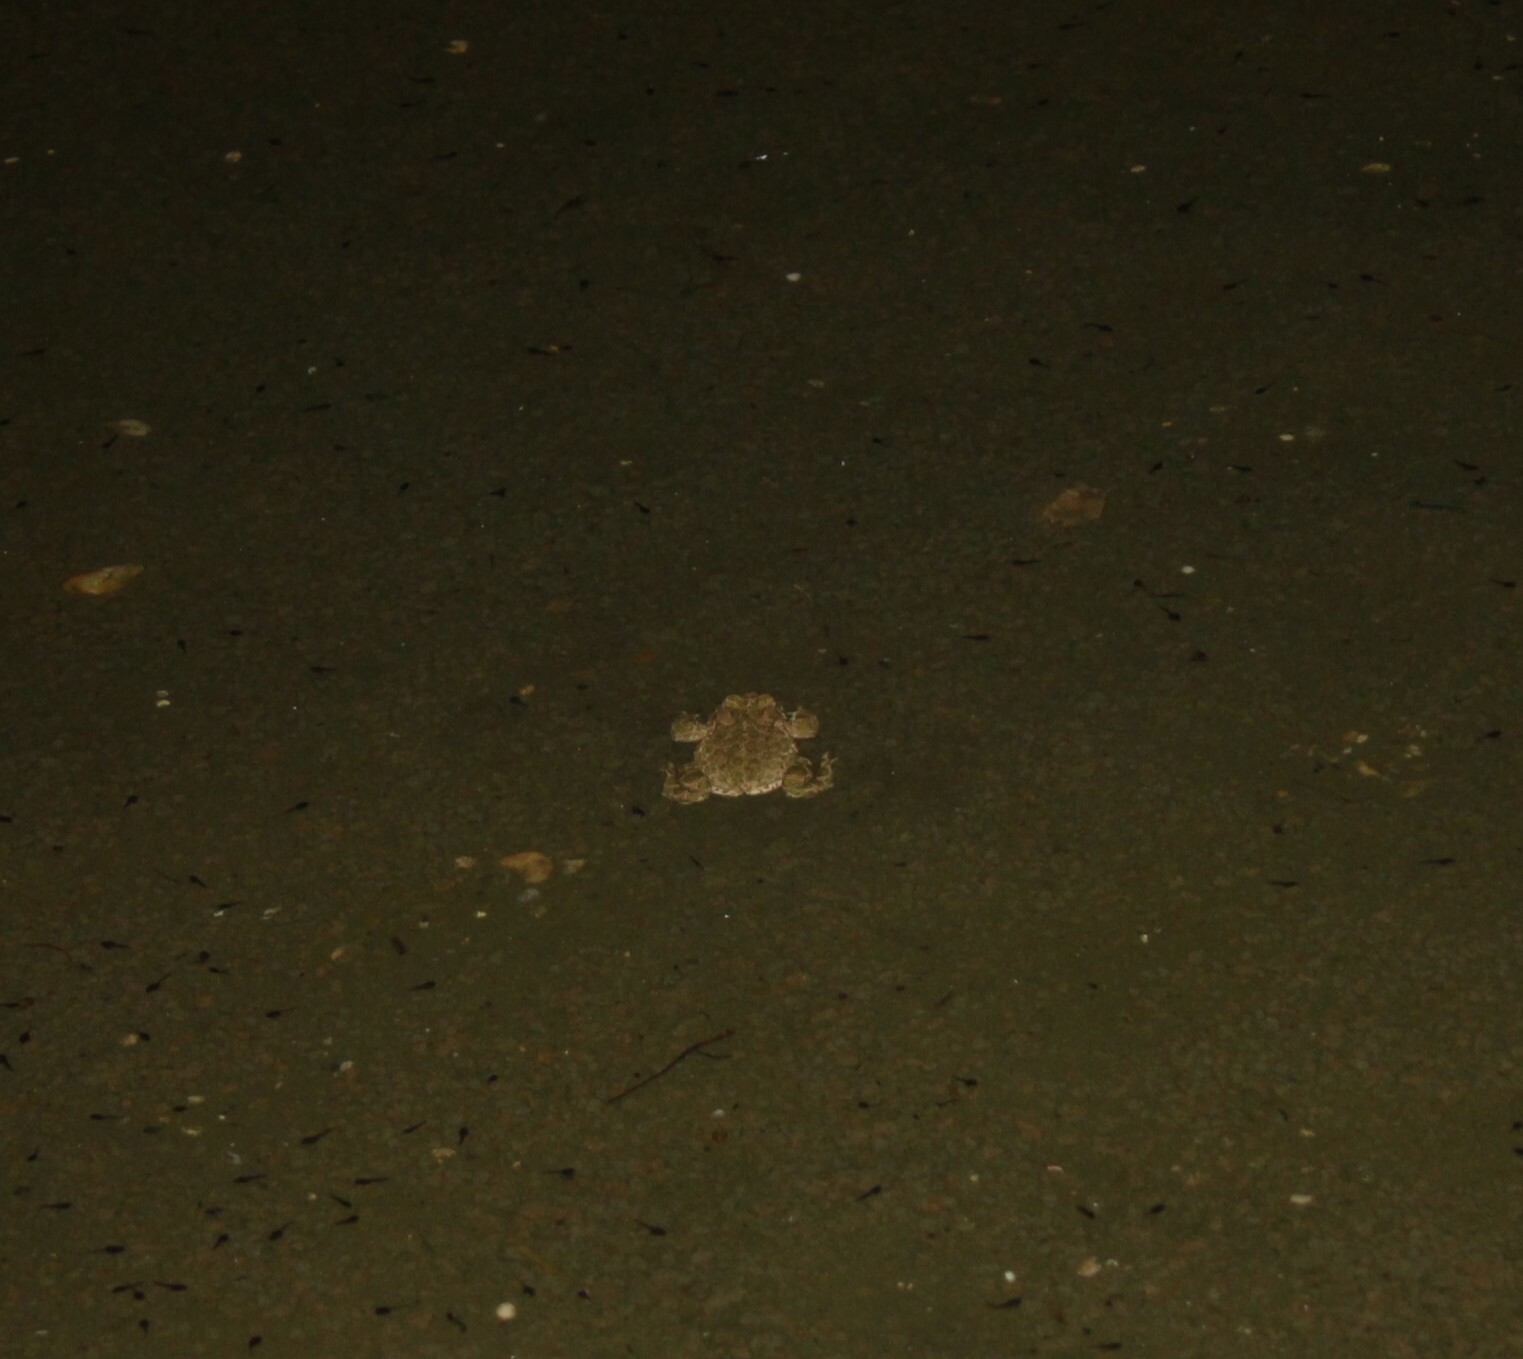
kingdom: Animalia
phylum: Chordata
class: Amphibia
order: Anura
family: Bufonidae
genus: Bufotes
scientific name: Bufotes viridis
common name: European green toad
